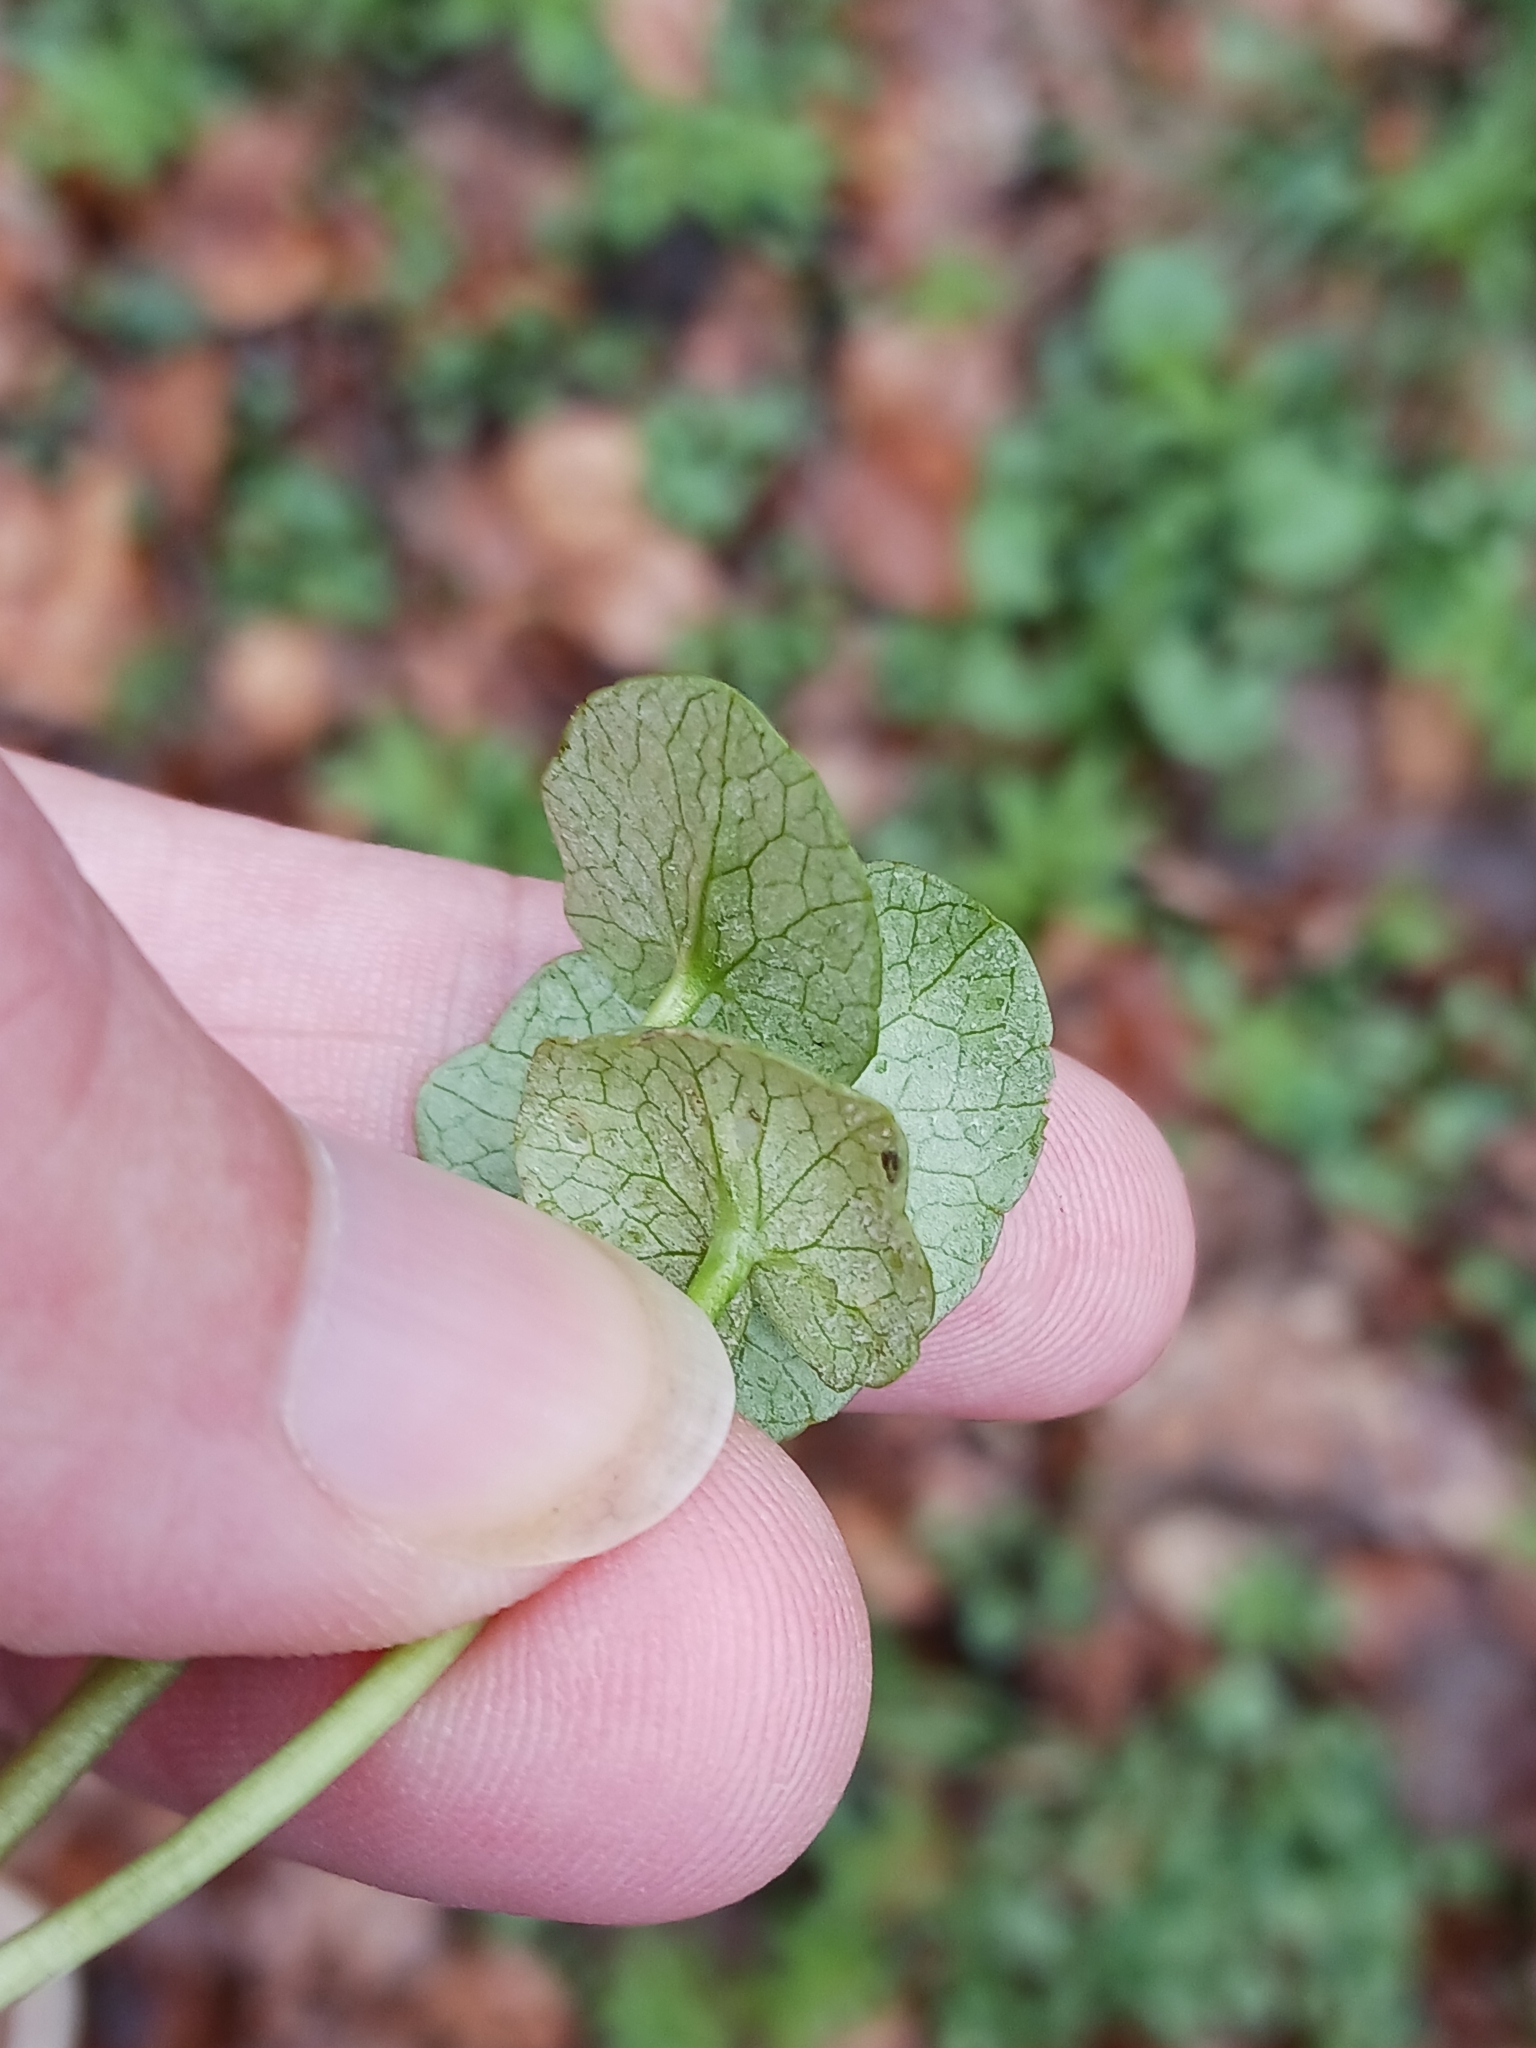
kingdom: Chromista
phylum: Oomycota
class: Peronosporea
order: Peronosporales
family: Peronosporaceae
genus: Peronospora
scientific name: Peronospora ficariae
